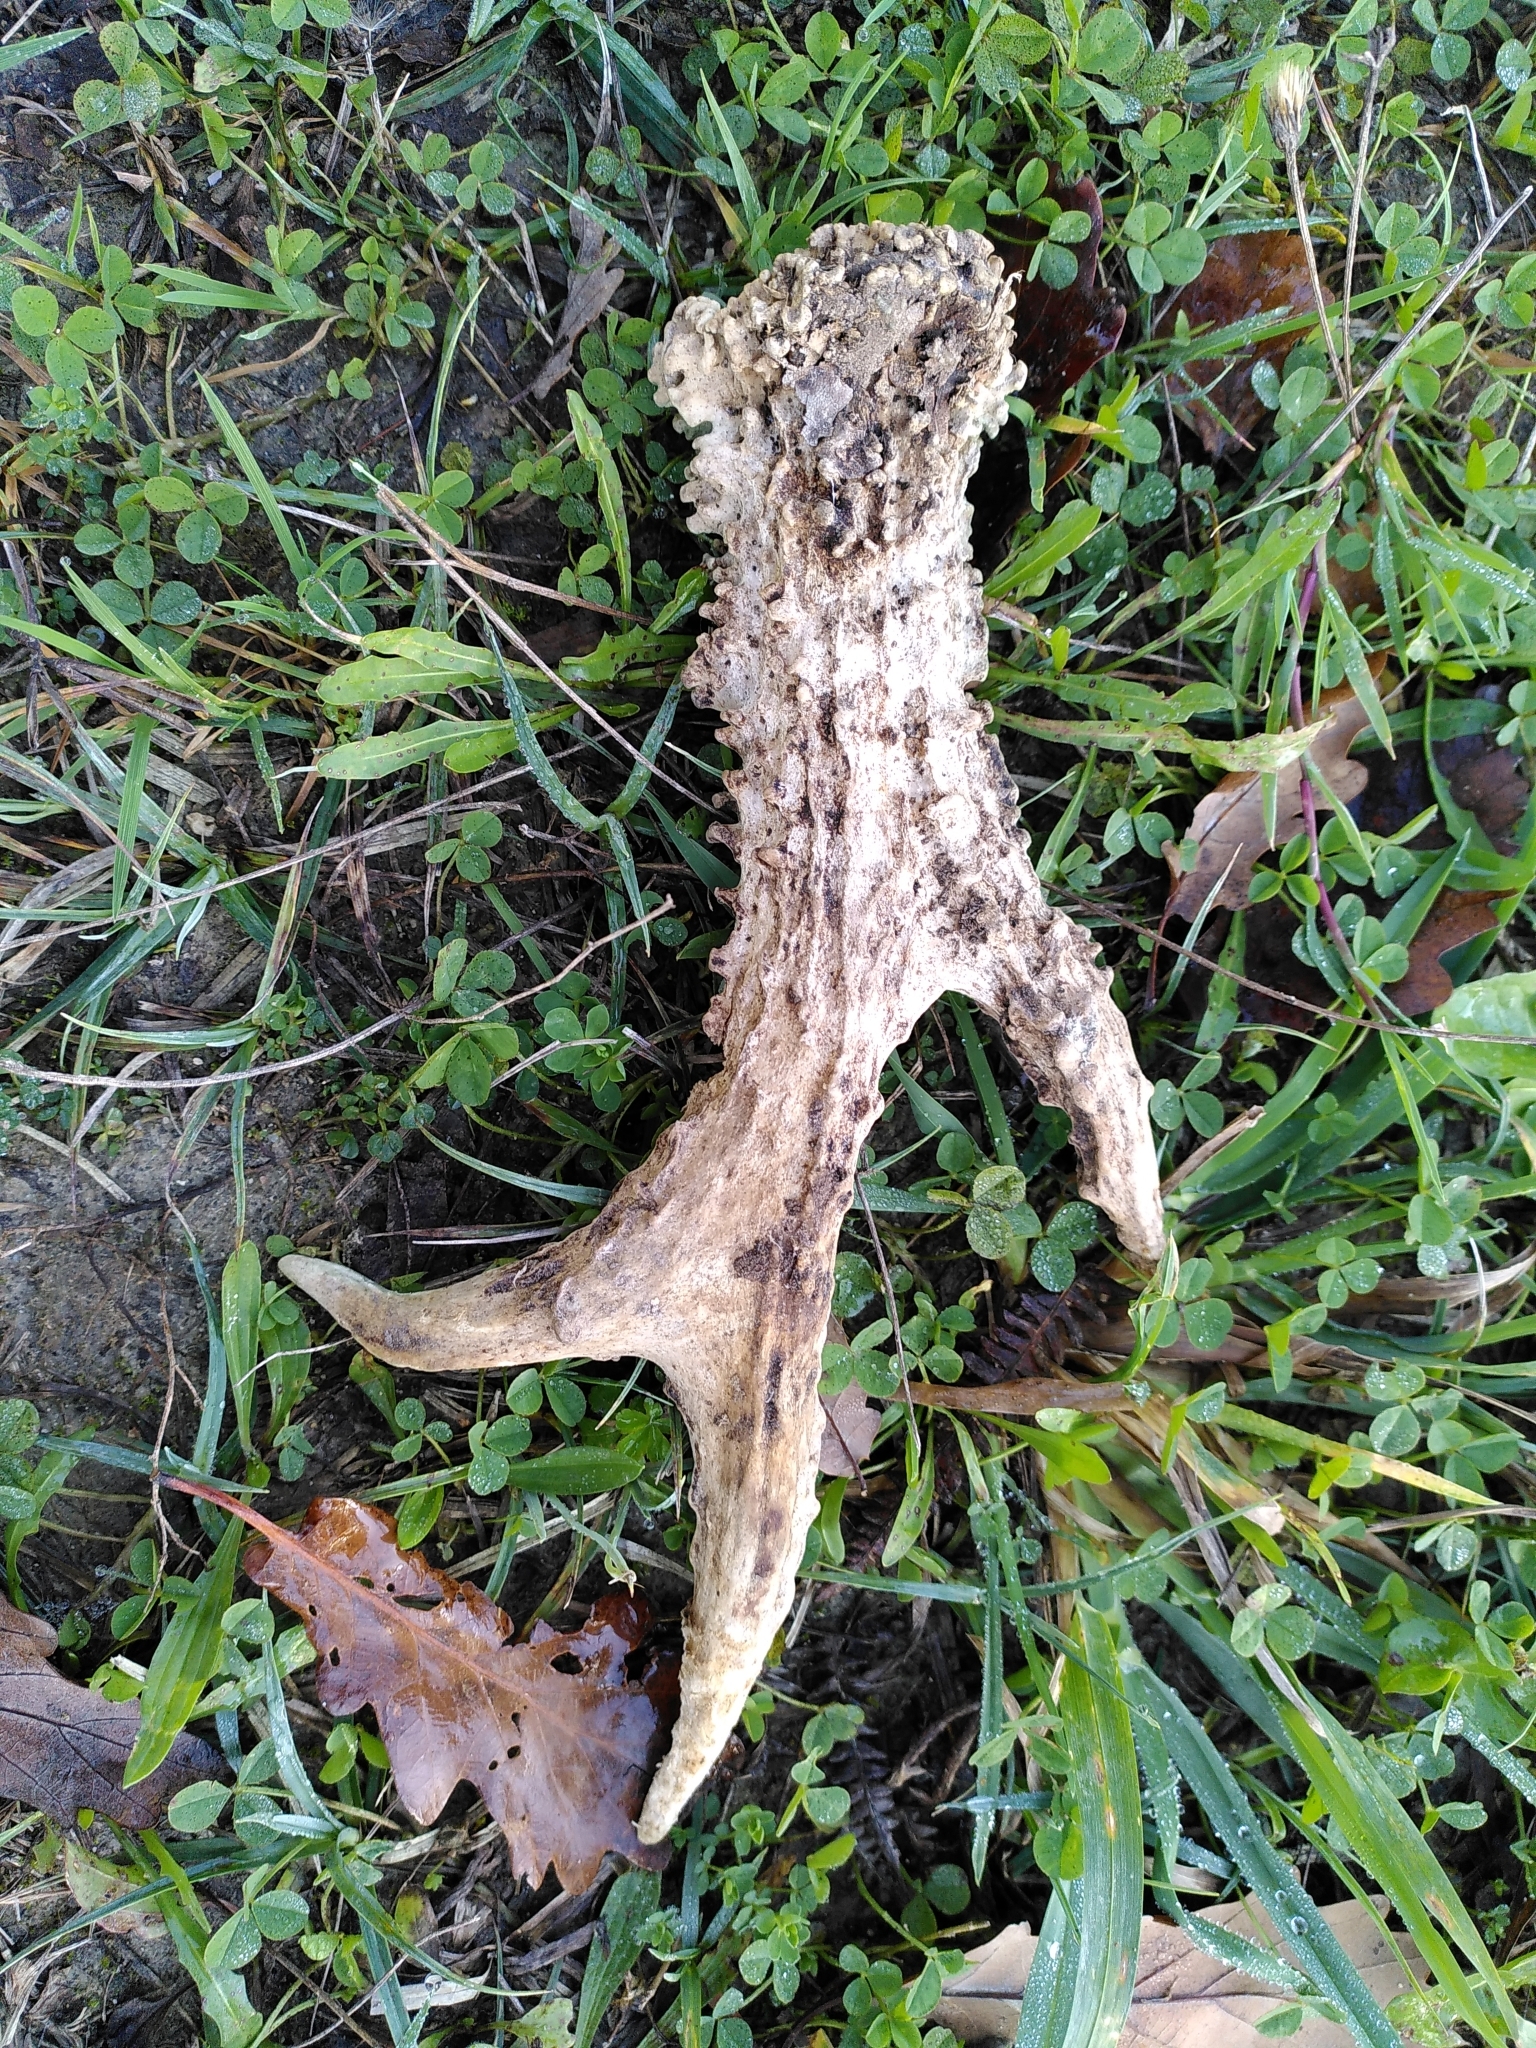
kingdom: Animalia
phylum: Chordata
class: Mammalia
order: Artiodactyla
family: Cervidae
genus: Capreolus
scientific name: Capreolus capreolus
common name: Western roe deer
